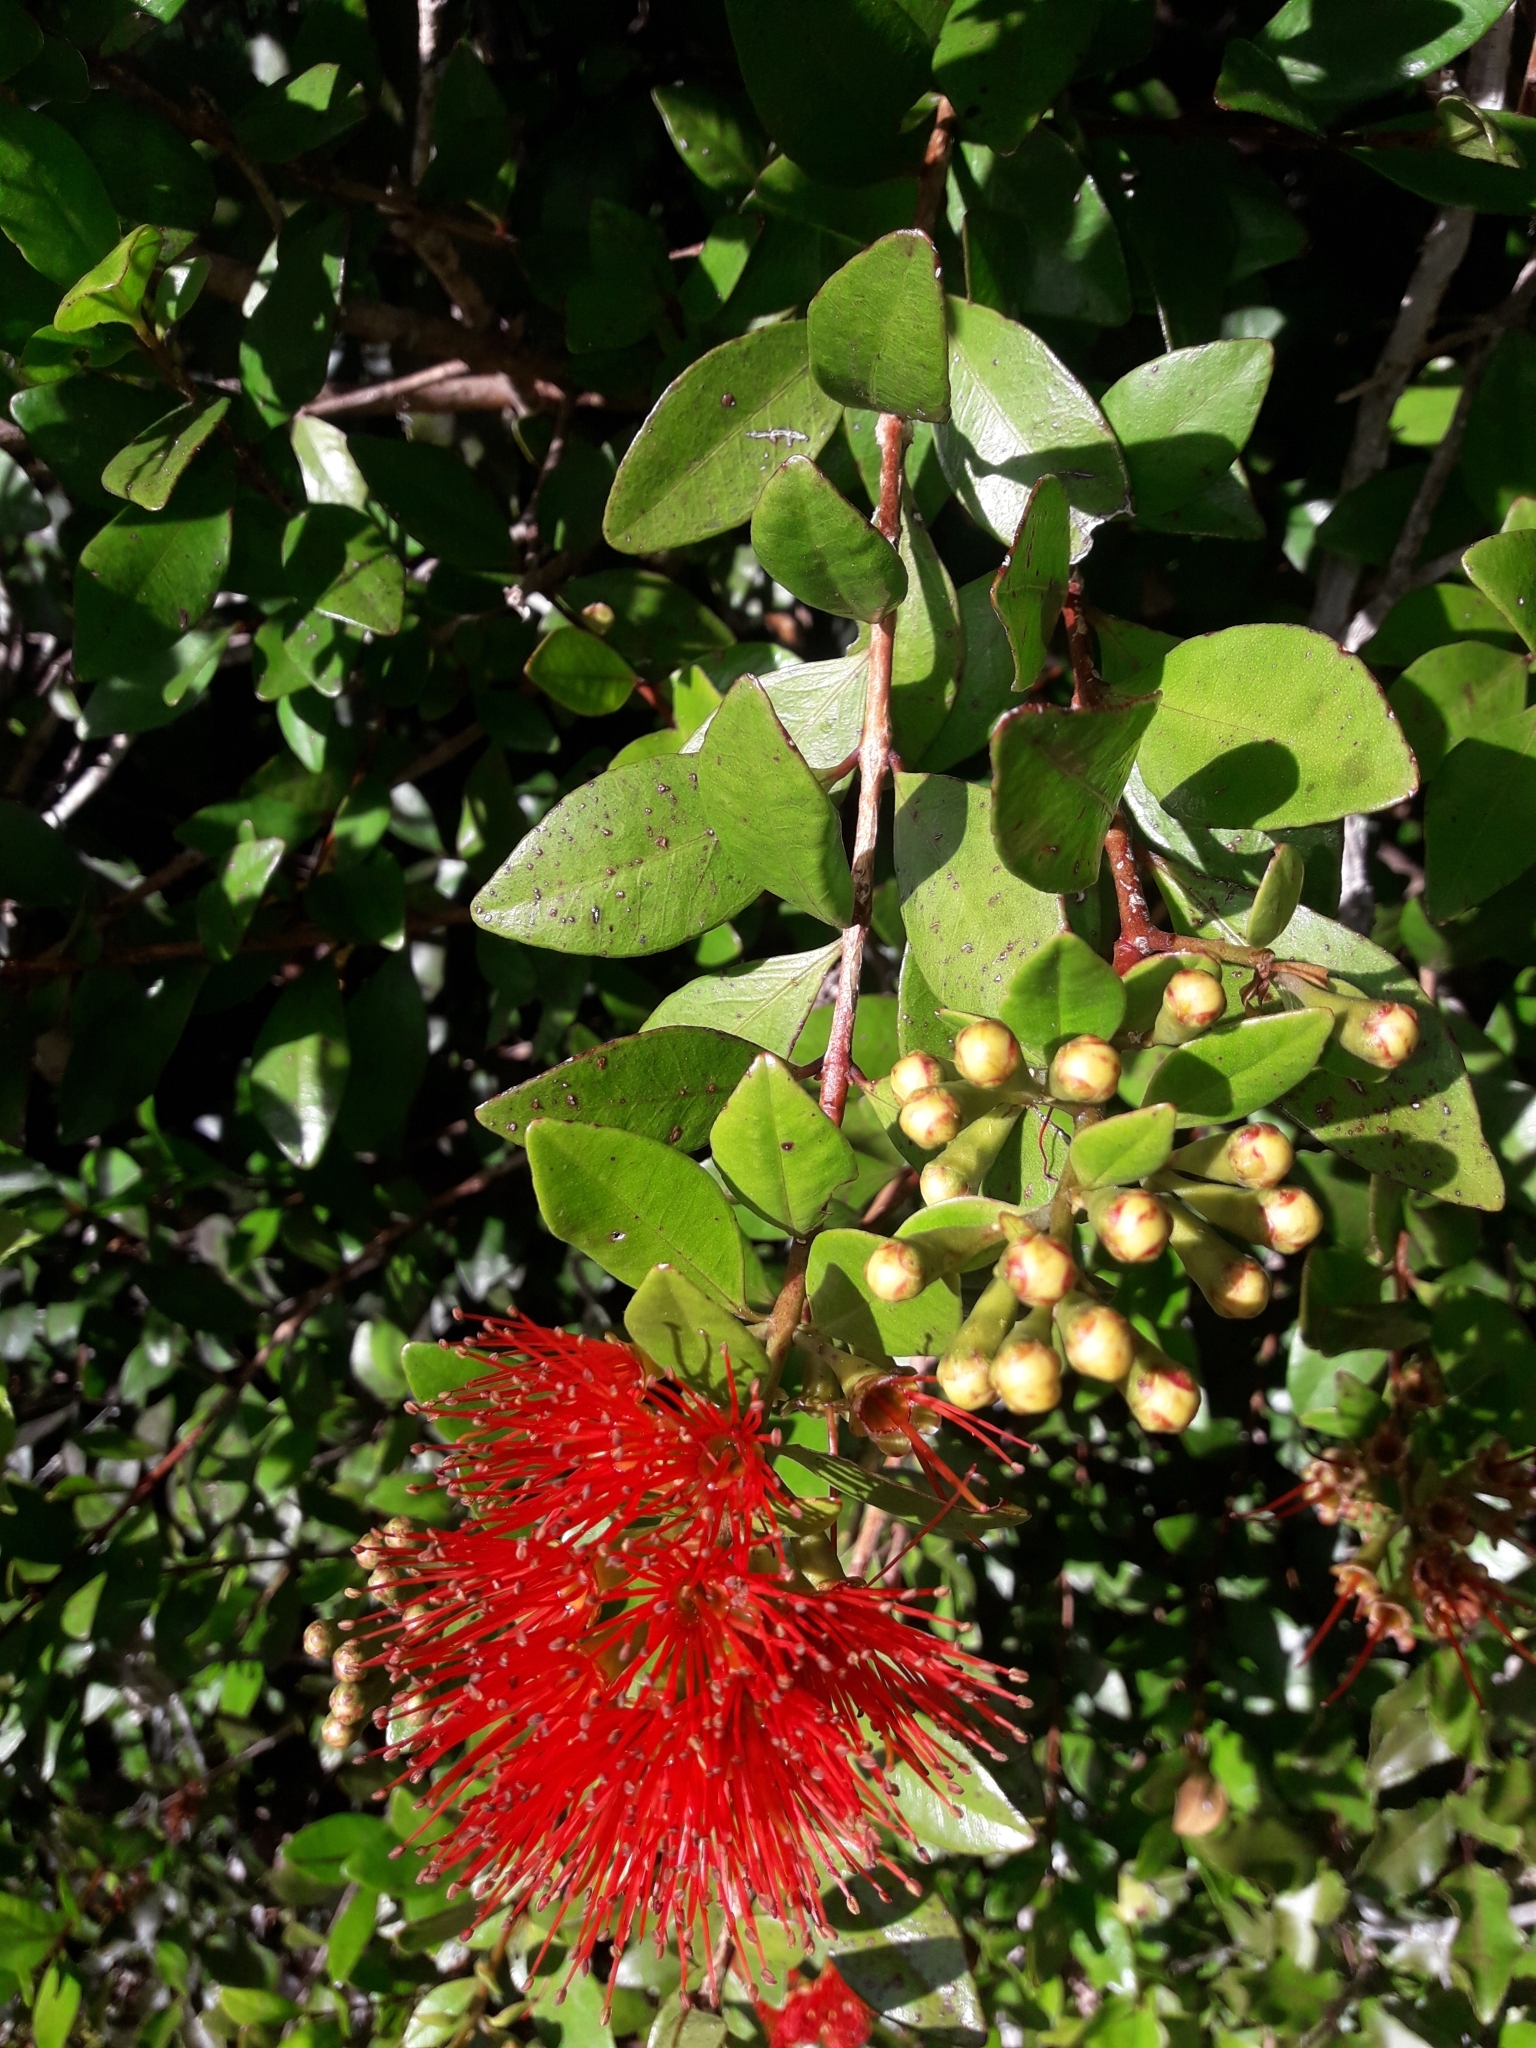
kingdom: Plantae
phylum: Tracheophyta
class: Magnoliopsida
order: Myrtales
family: Myrtaceae
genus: Metrosideros
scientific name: Metrosideros fulgens
